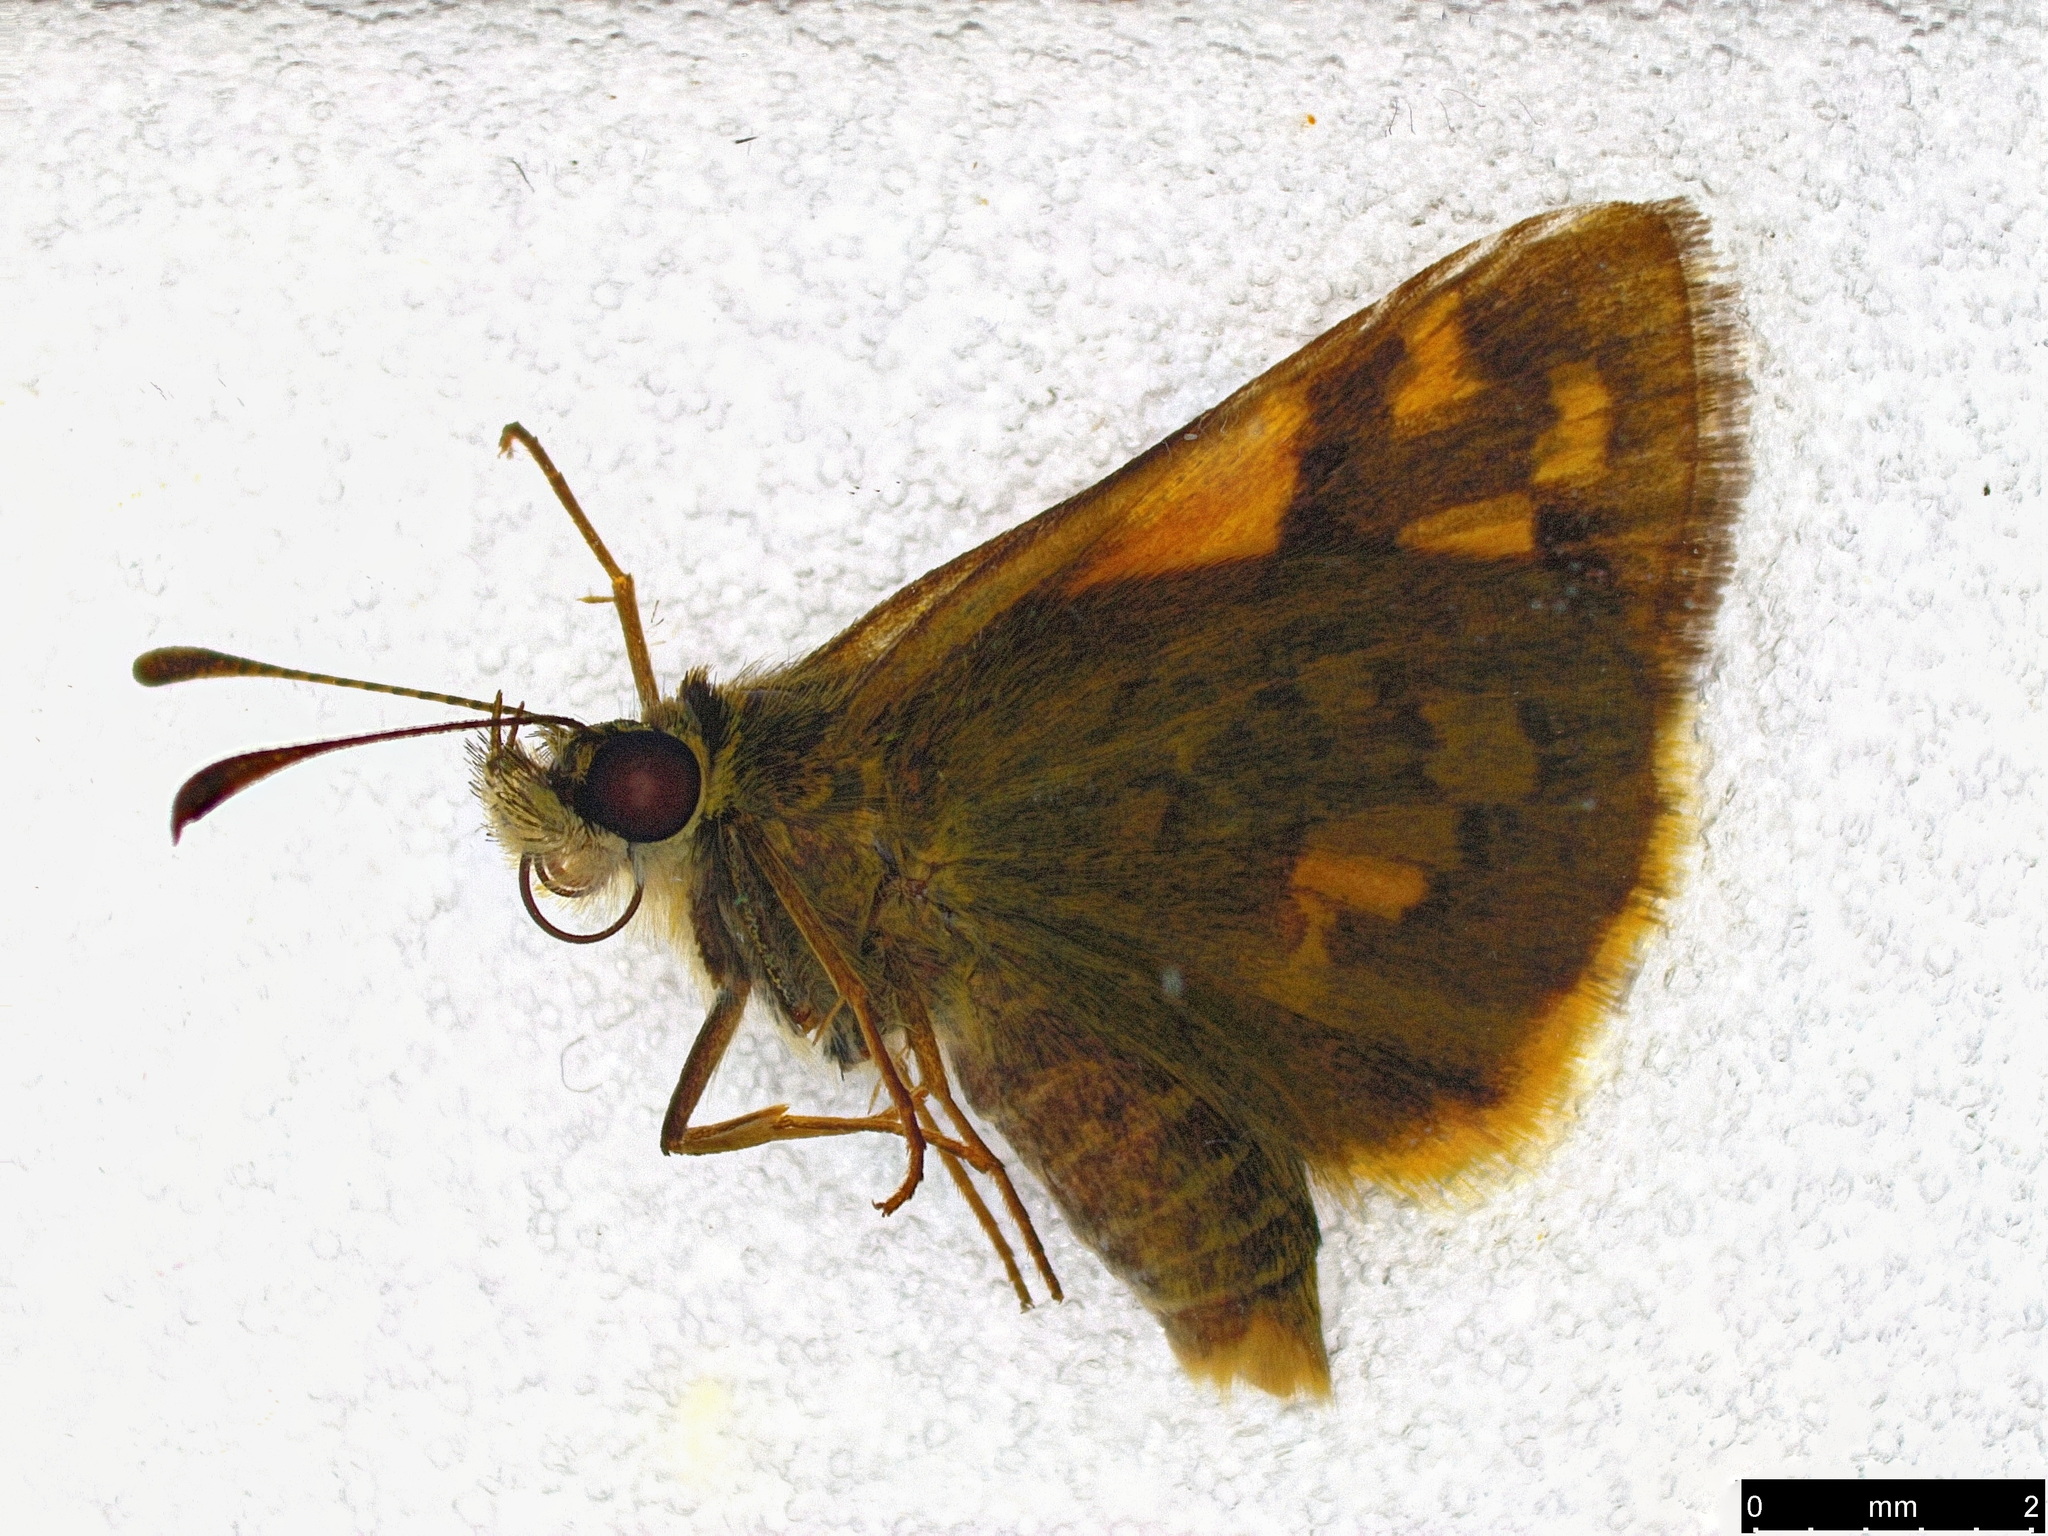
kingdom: Animalia
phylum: Arthropoda
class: Insecta
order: Lepidoptera
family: Hesperiidae
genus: Ocybadistes
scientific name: Ocybadistes walkeri
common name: Yellow-banded dart
